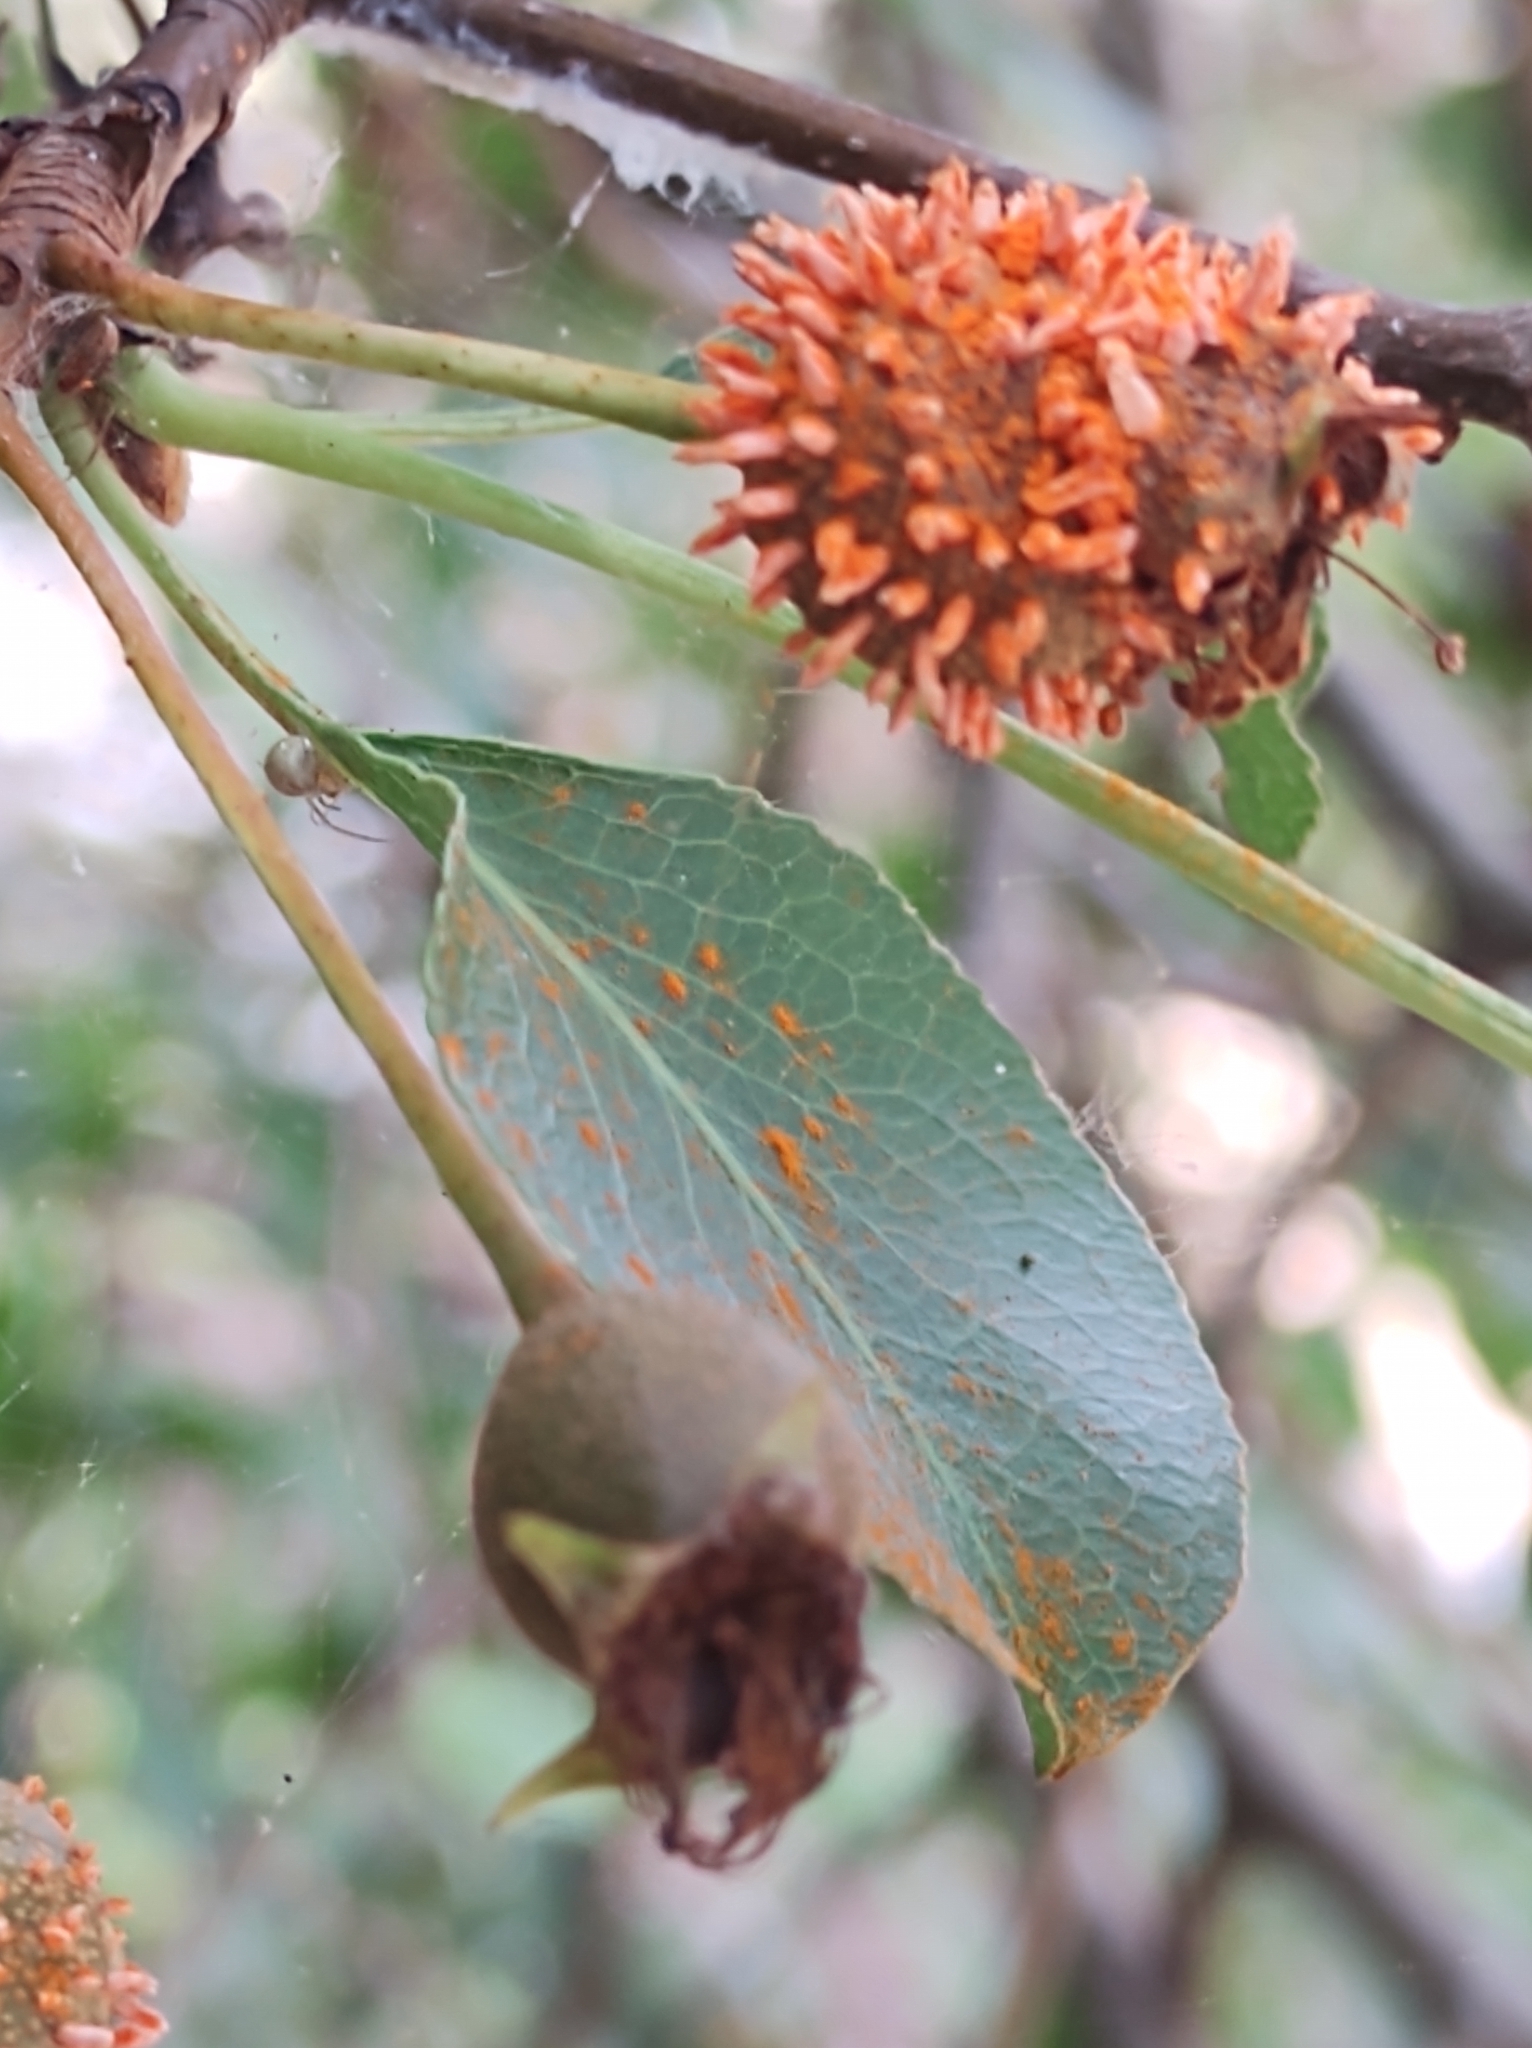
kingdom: Fungi
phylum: Basidiomycota
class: Pucciniomycetes
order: Pucciniales
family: Gymnosporangiaceae
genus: Gymnosporangium
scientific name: Gymnosporangium clavipes
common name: Quince rust
